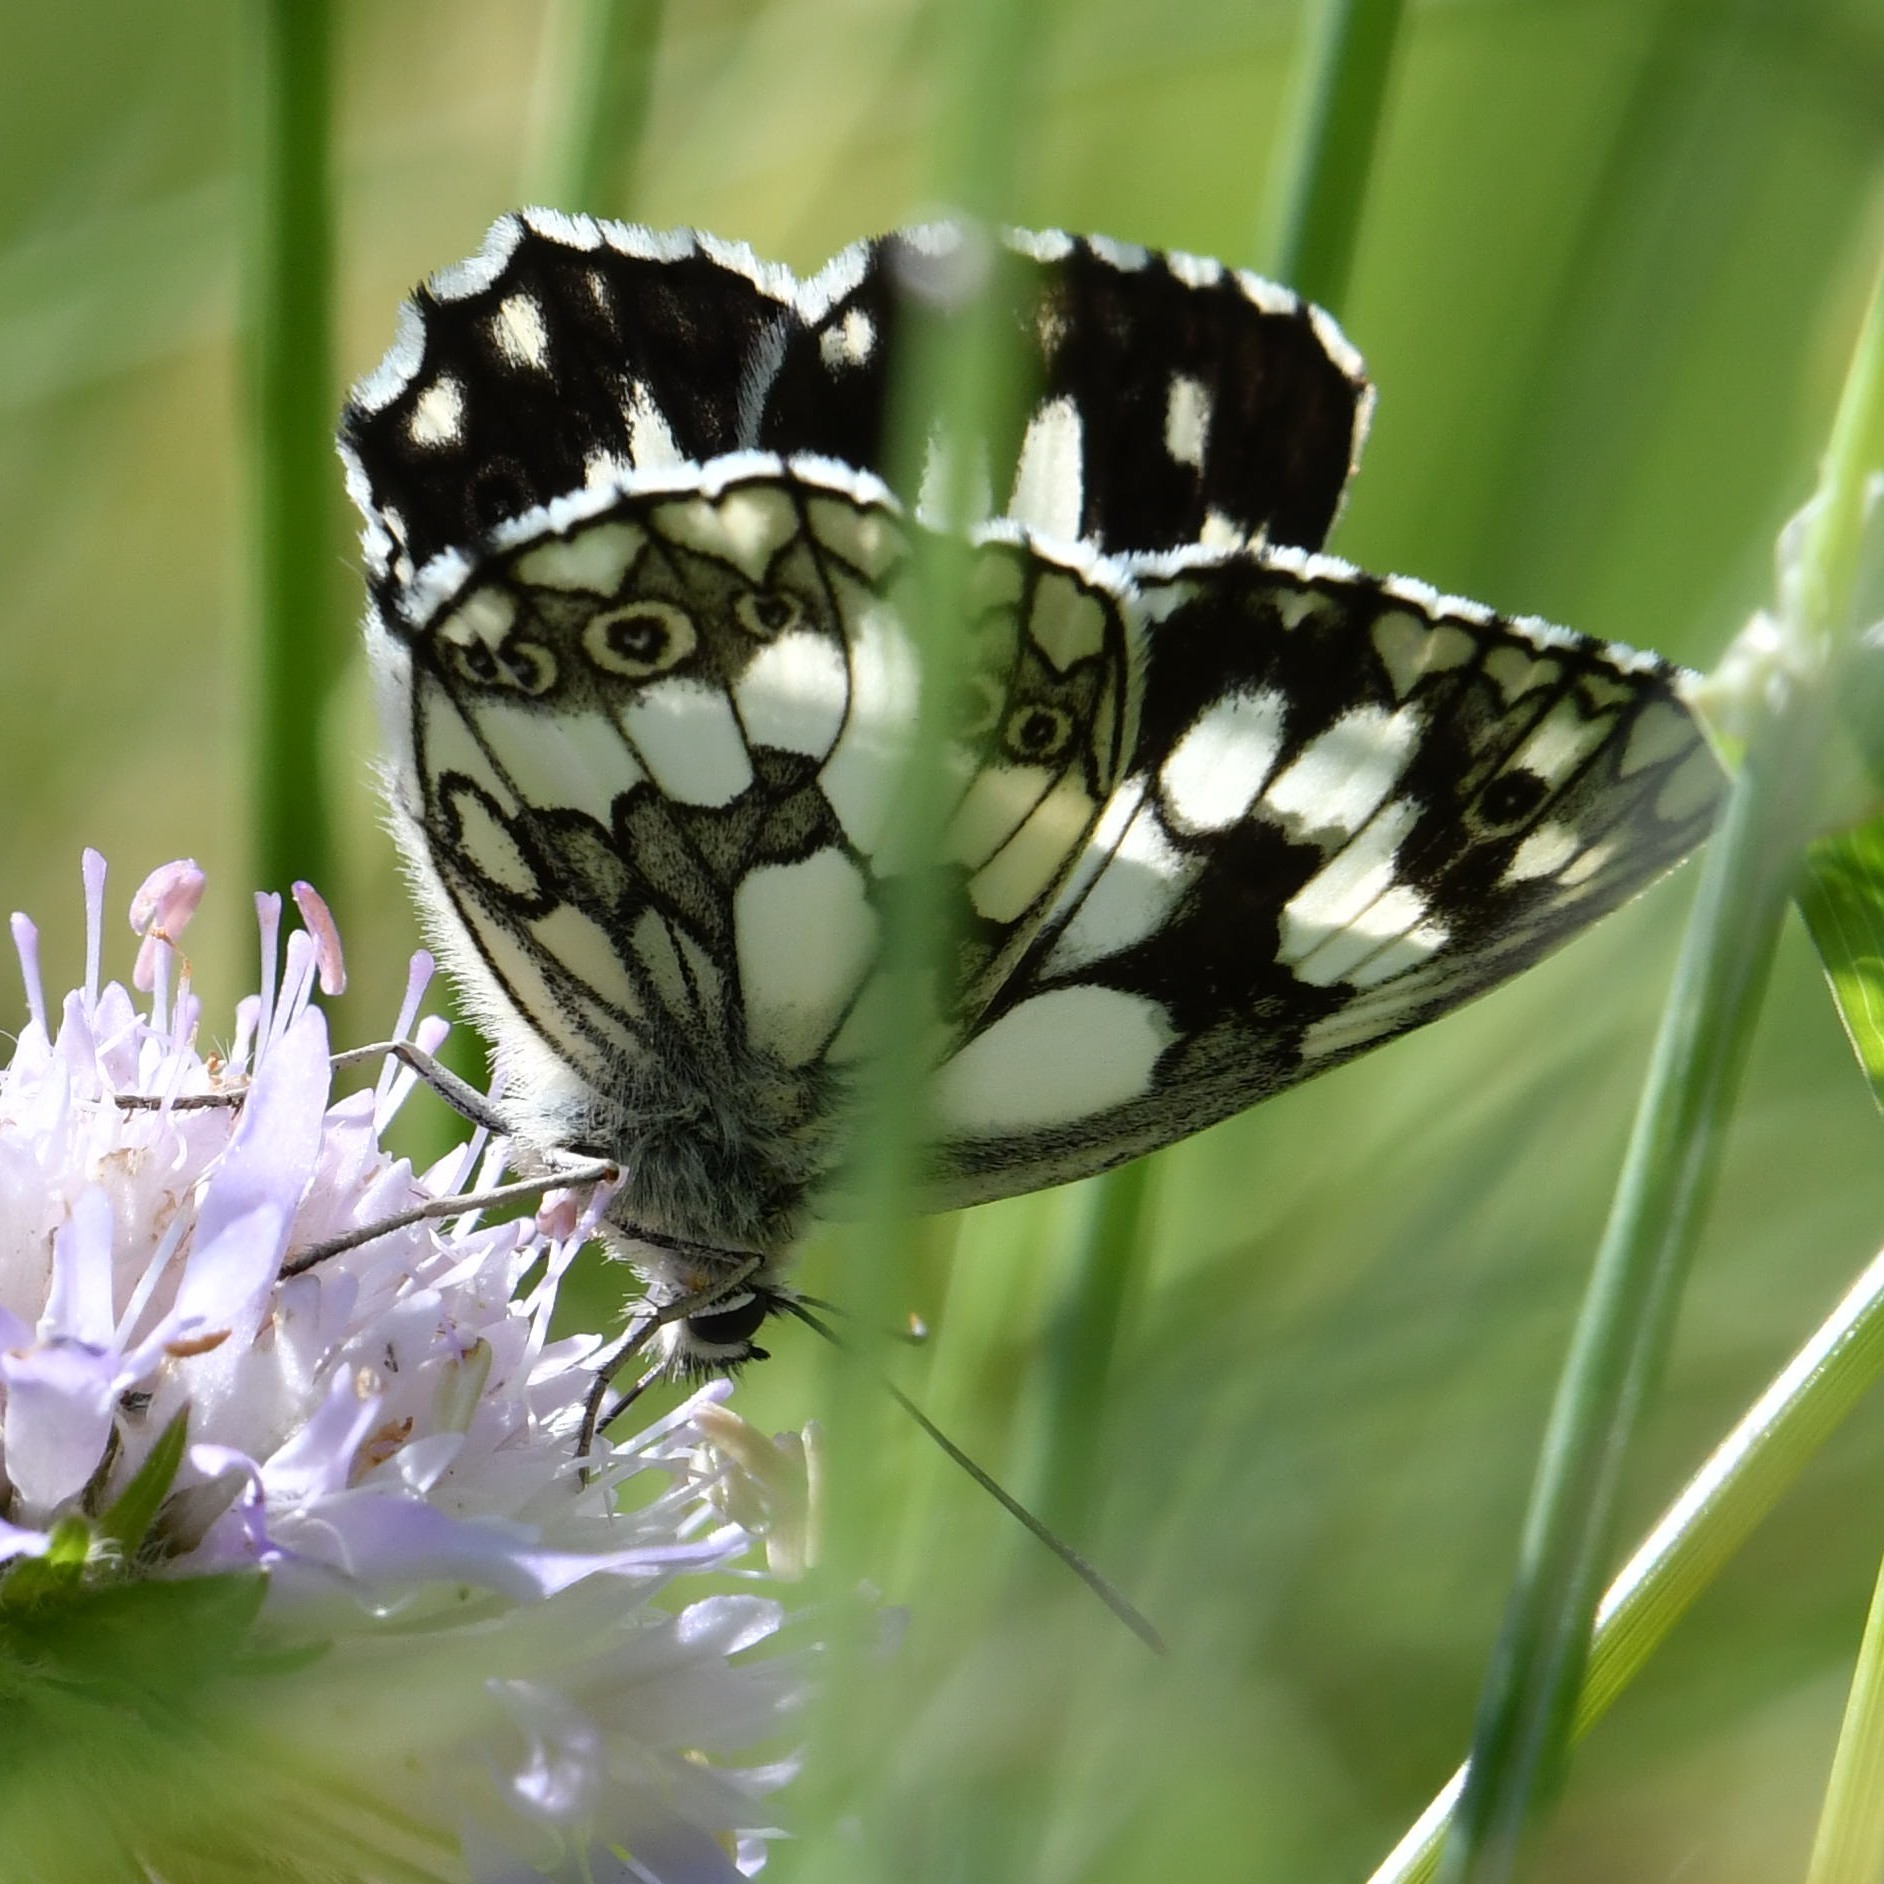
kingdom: Animalia
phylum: Arthropoda
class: Insecta
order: Lepidoptera
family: Nymphalidae
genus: Melanargia
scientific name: Melanargia galathea
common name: Marbled white
